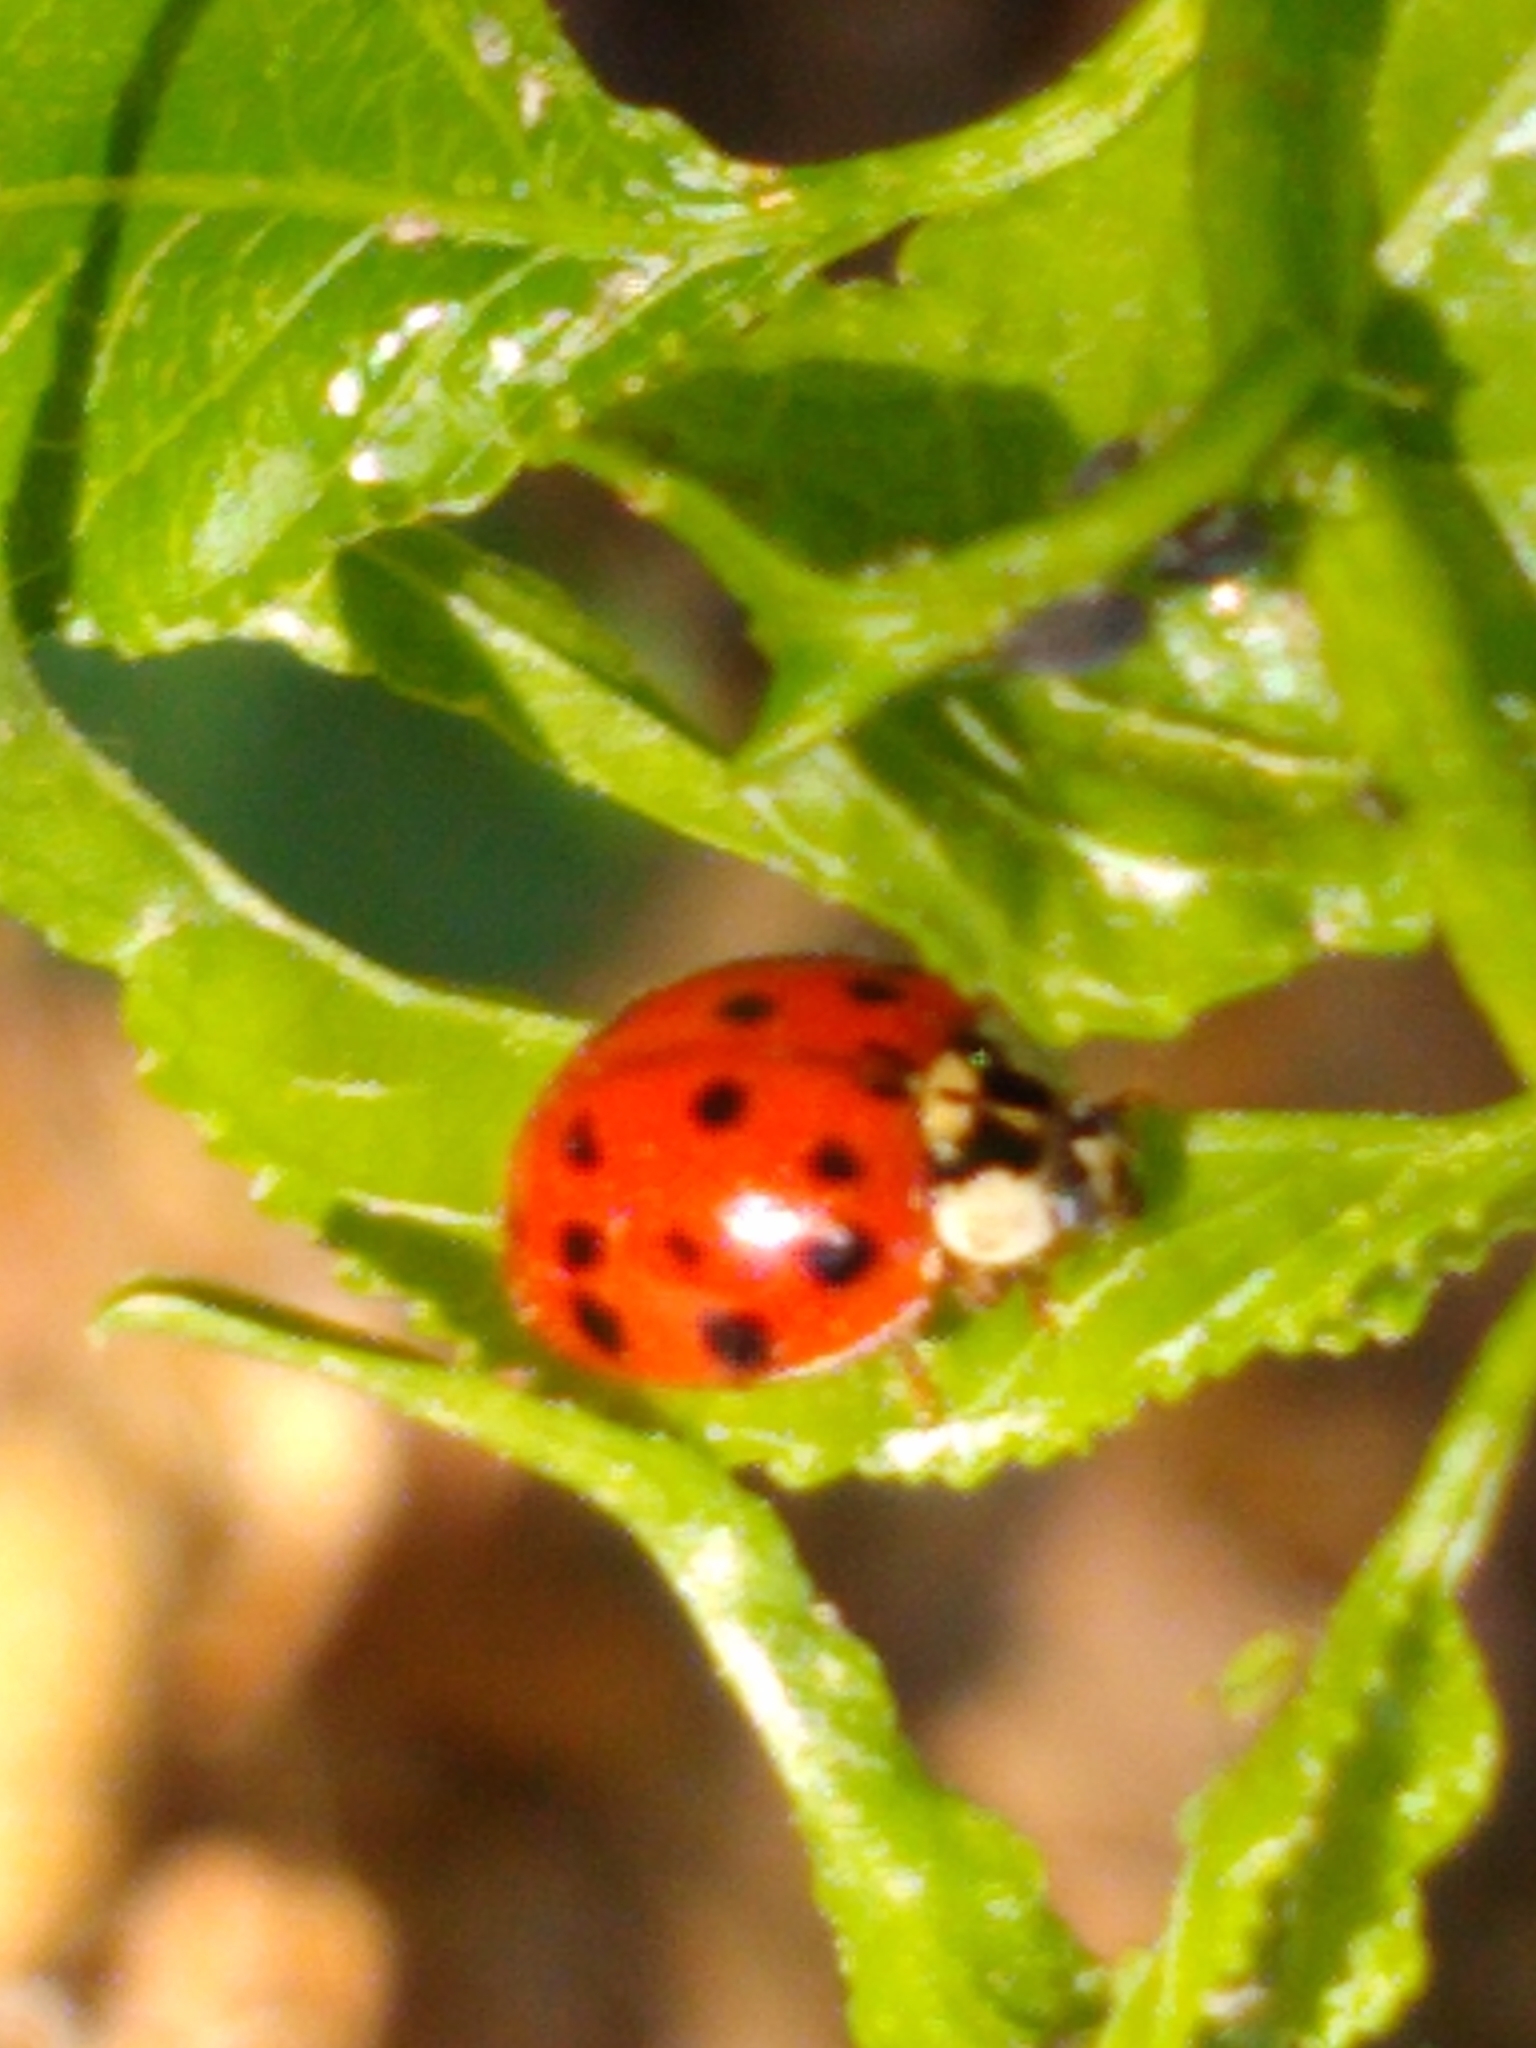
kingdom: Animalia
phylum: Arthropoda
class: Insecta
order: Coleoptera
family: Coccinellidae
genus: Harmonia
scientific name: Harmonia axyridis
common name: Harlequin ladybird
